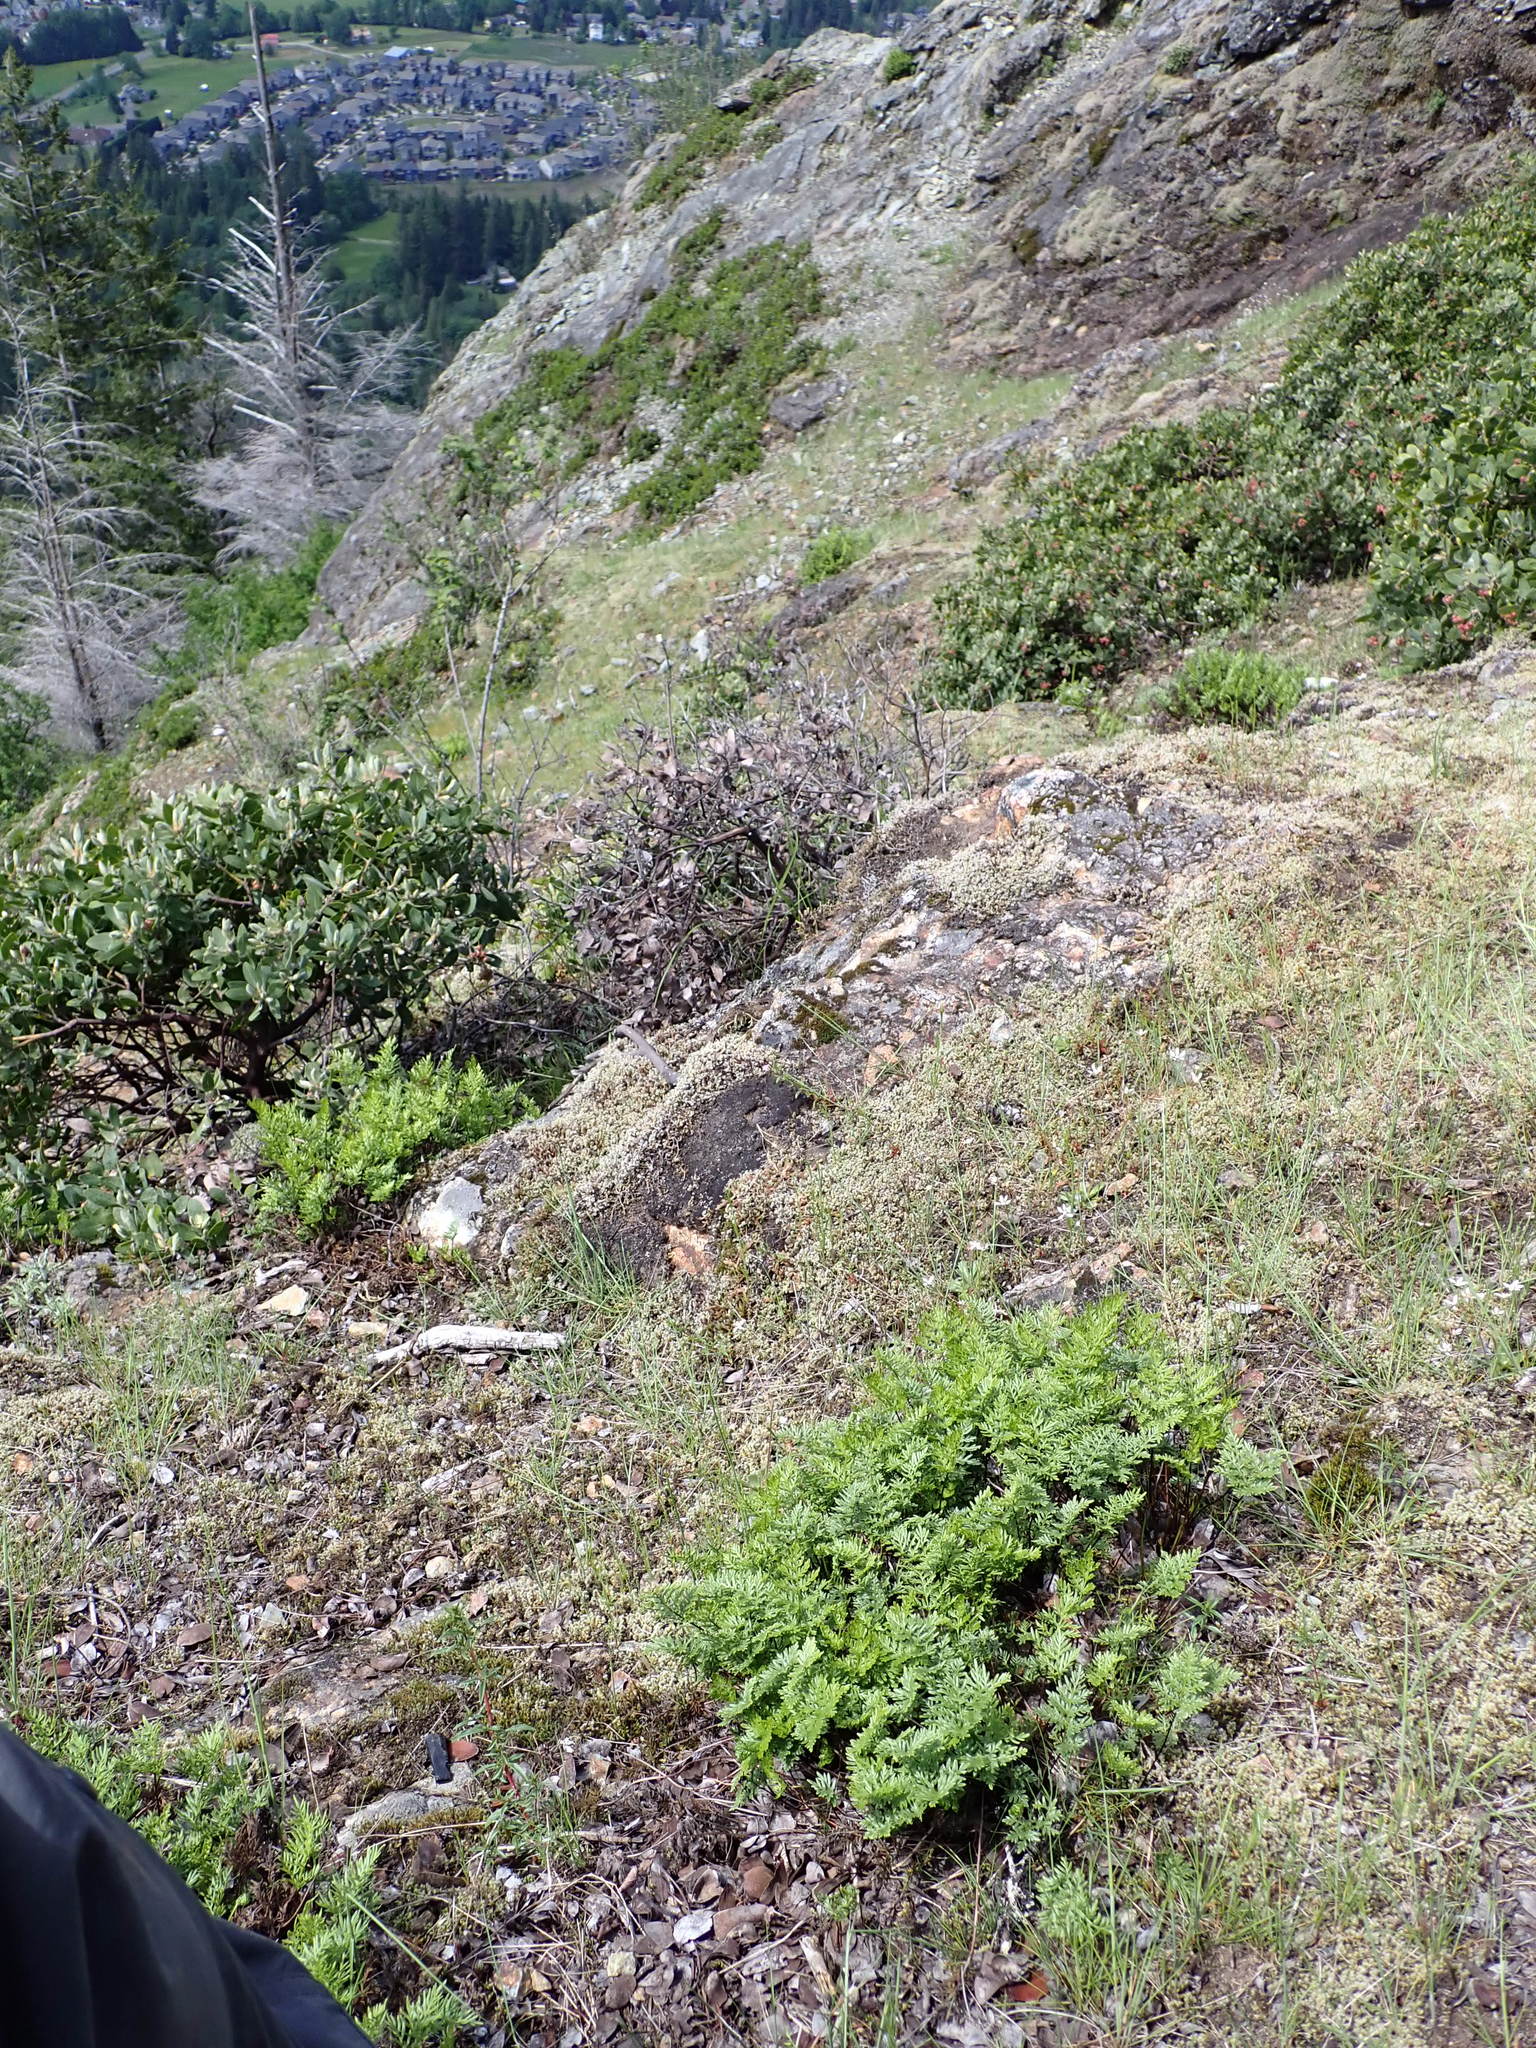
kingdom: Plantae
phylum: Tracheophyta
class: Polypodiopsida
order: Polypodiales
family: Pteridaceae
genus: Aspidotis
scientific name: Aspidotis densa
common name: Indian's dream
